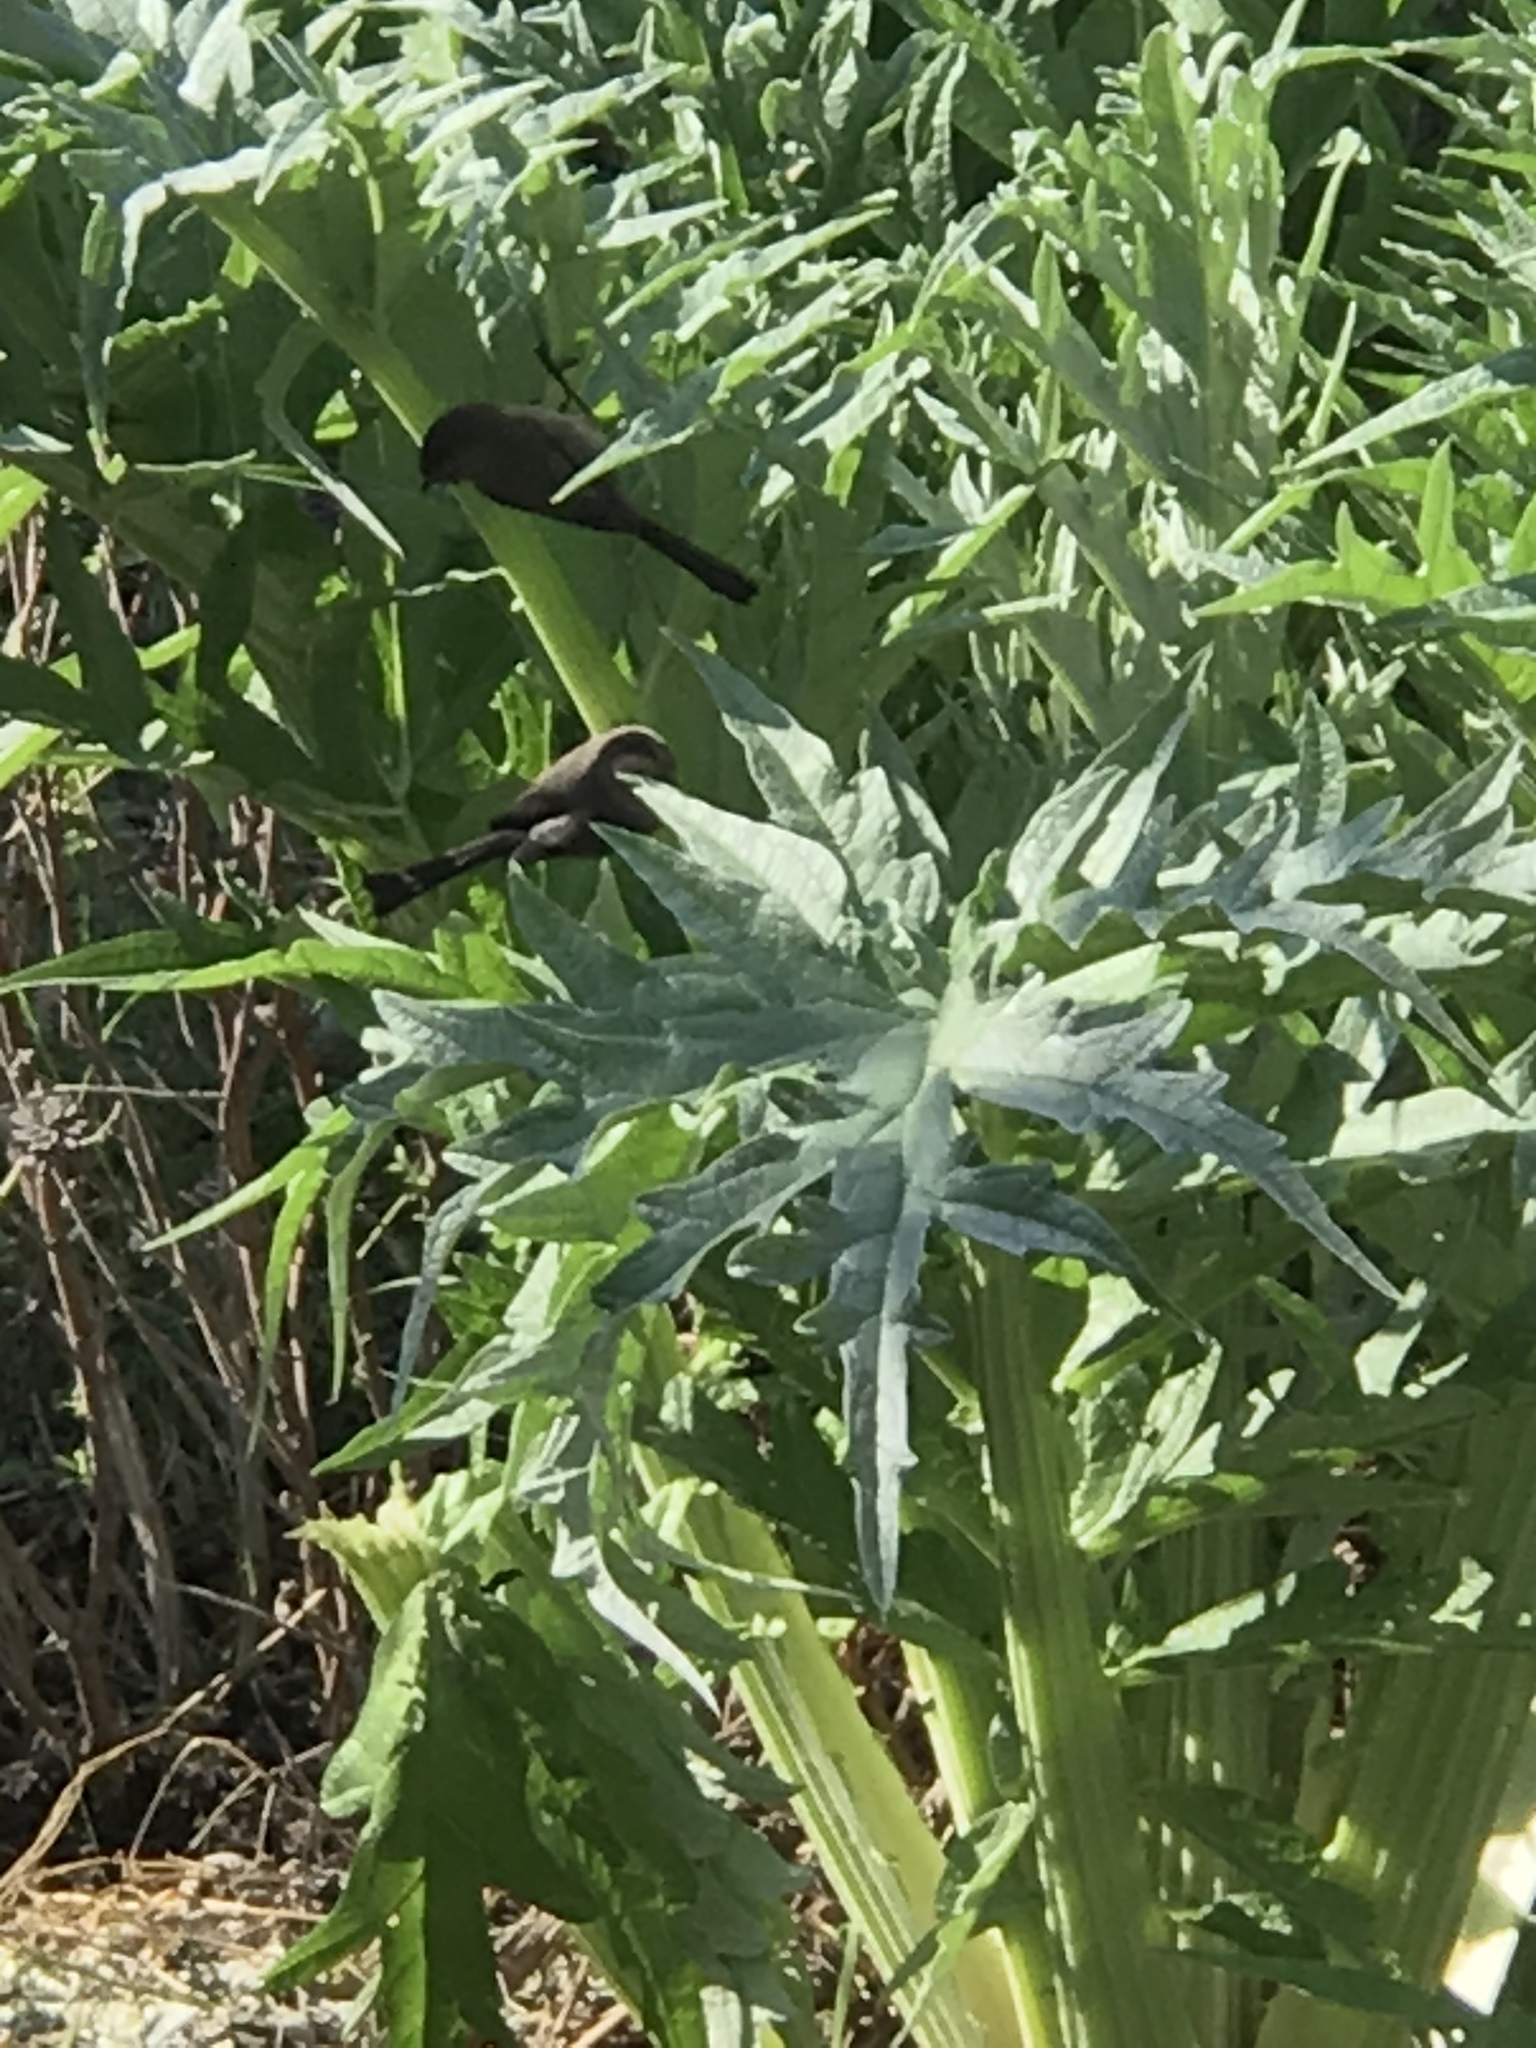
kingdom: Animalia
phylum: Chordata
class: Aves
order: Passeriformes
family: Aegithalidae
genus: Psaltriparus
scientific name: Psaltriparus minimus
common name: American bushtit
